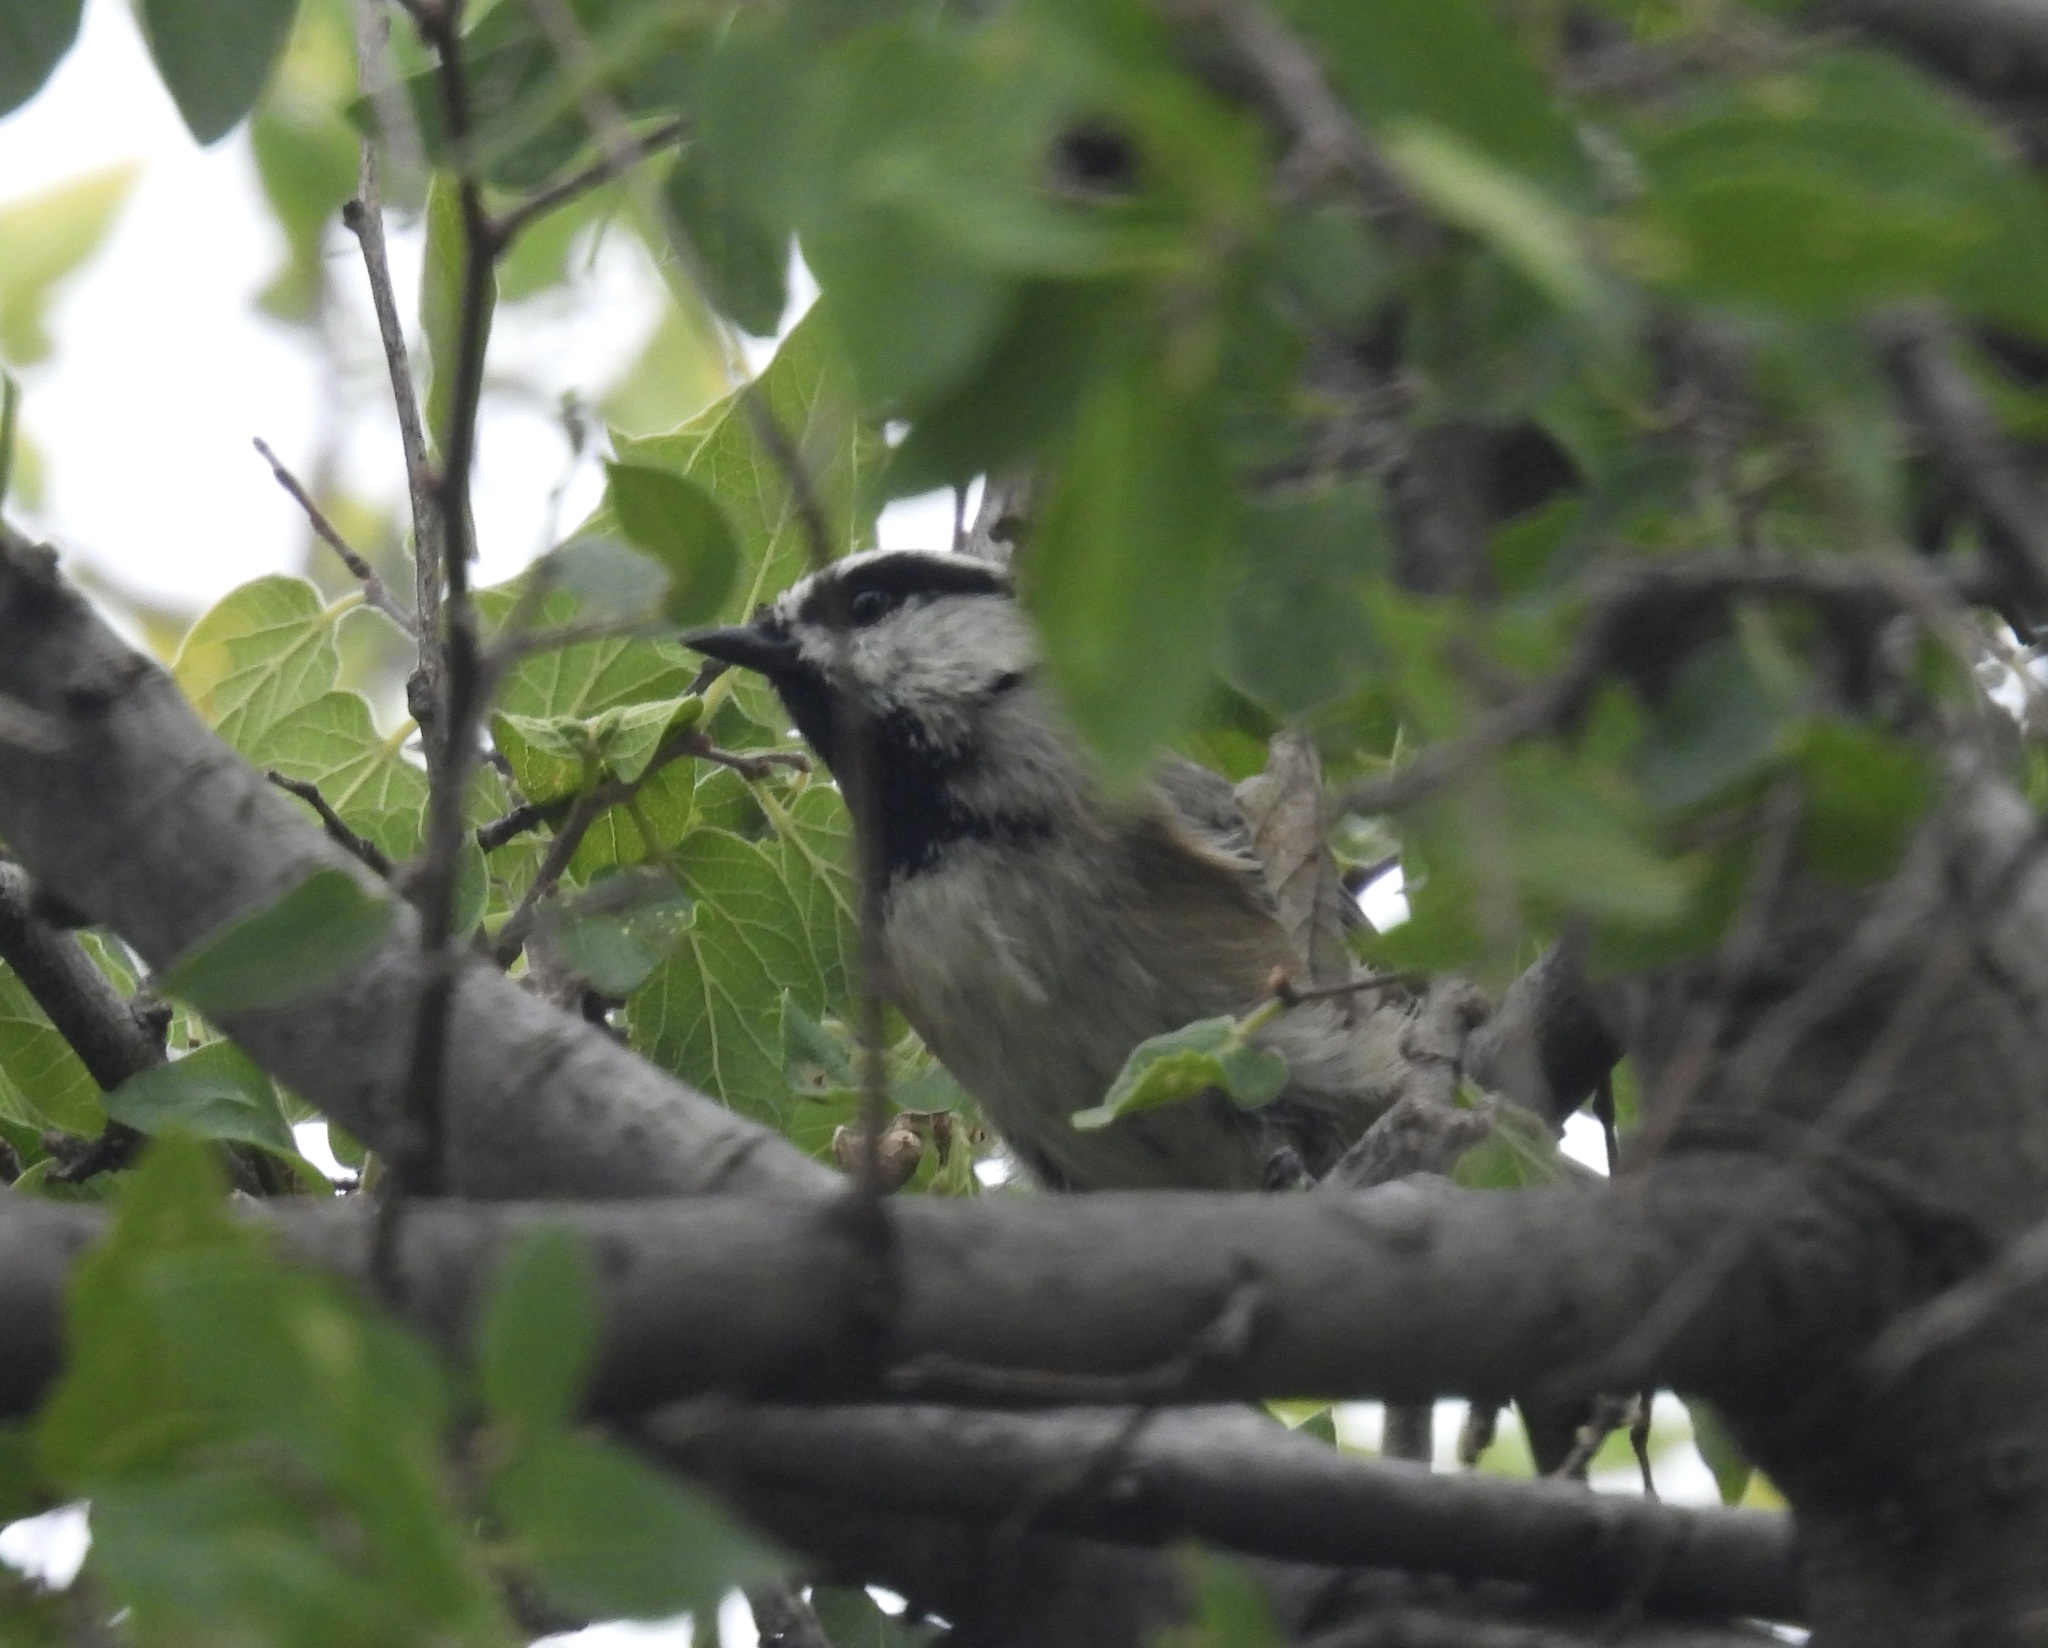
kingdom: Animalia
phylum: Chordata
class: Aves
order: Passeriformes
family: Paridae
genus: Poecile
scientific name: Poecile gambeli
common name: Mountain chickadee
